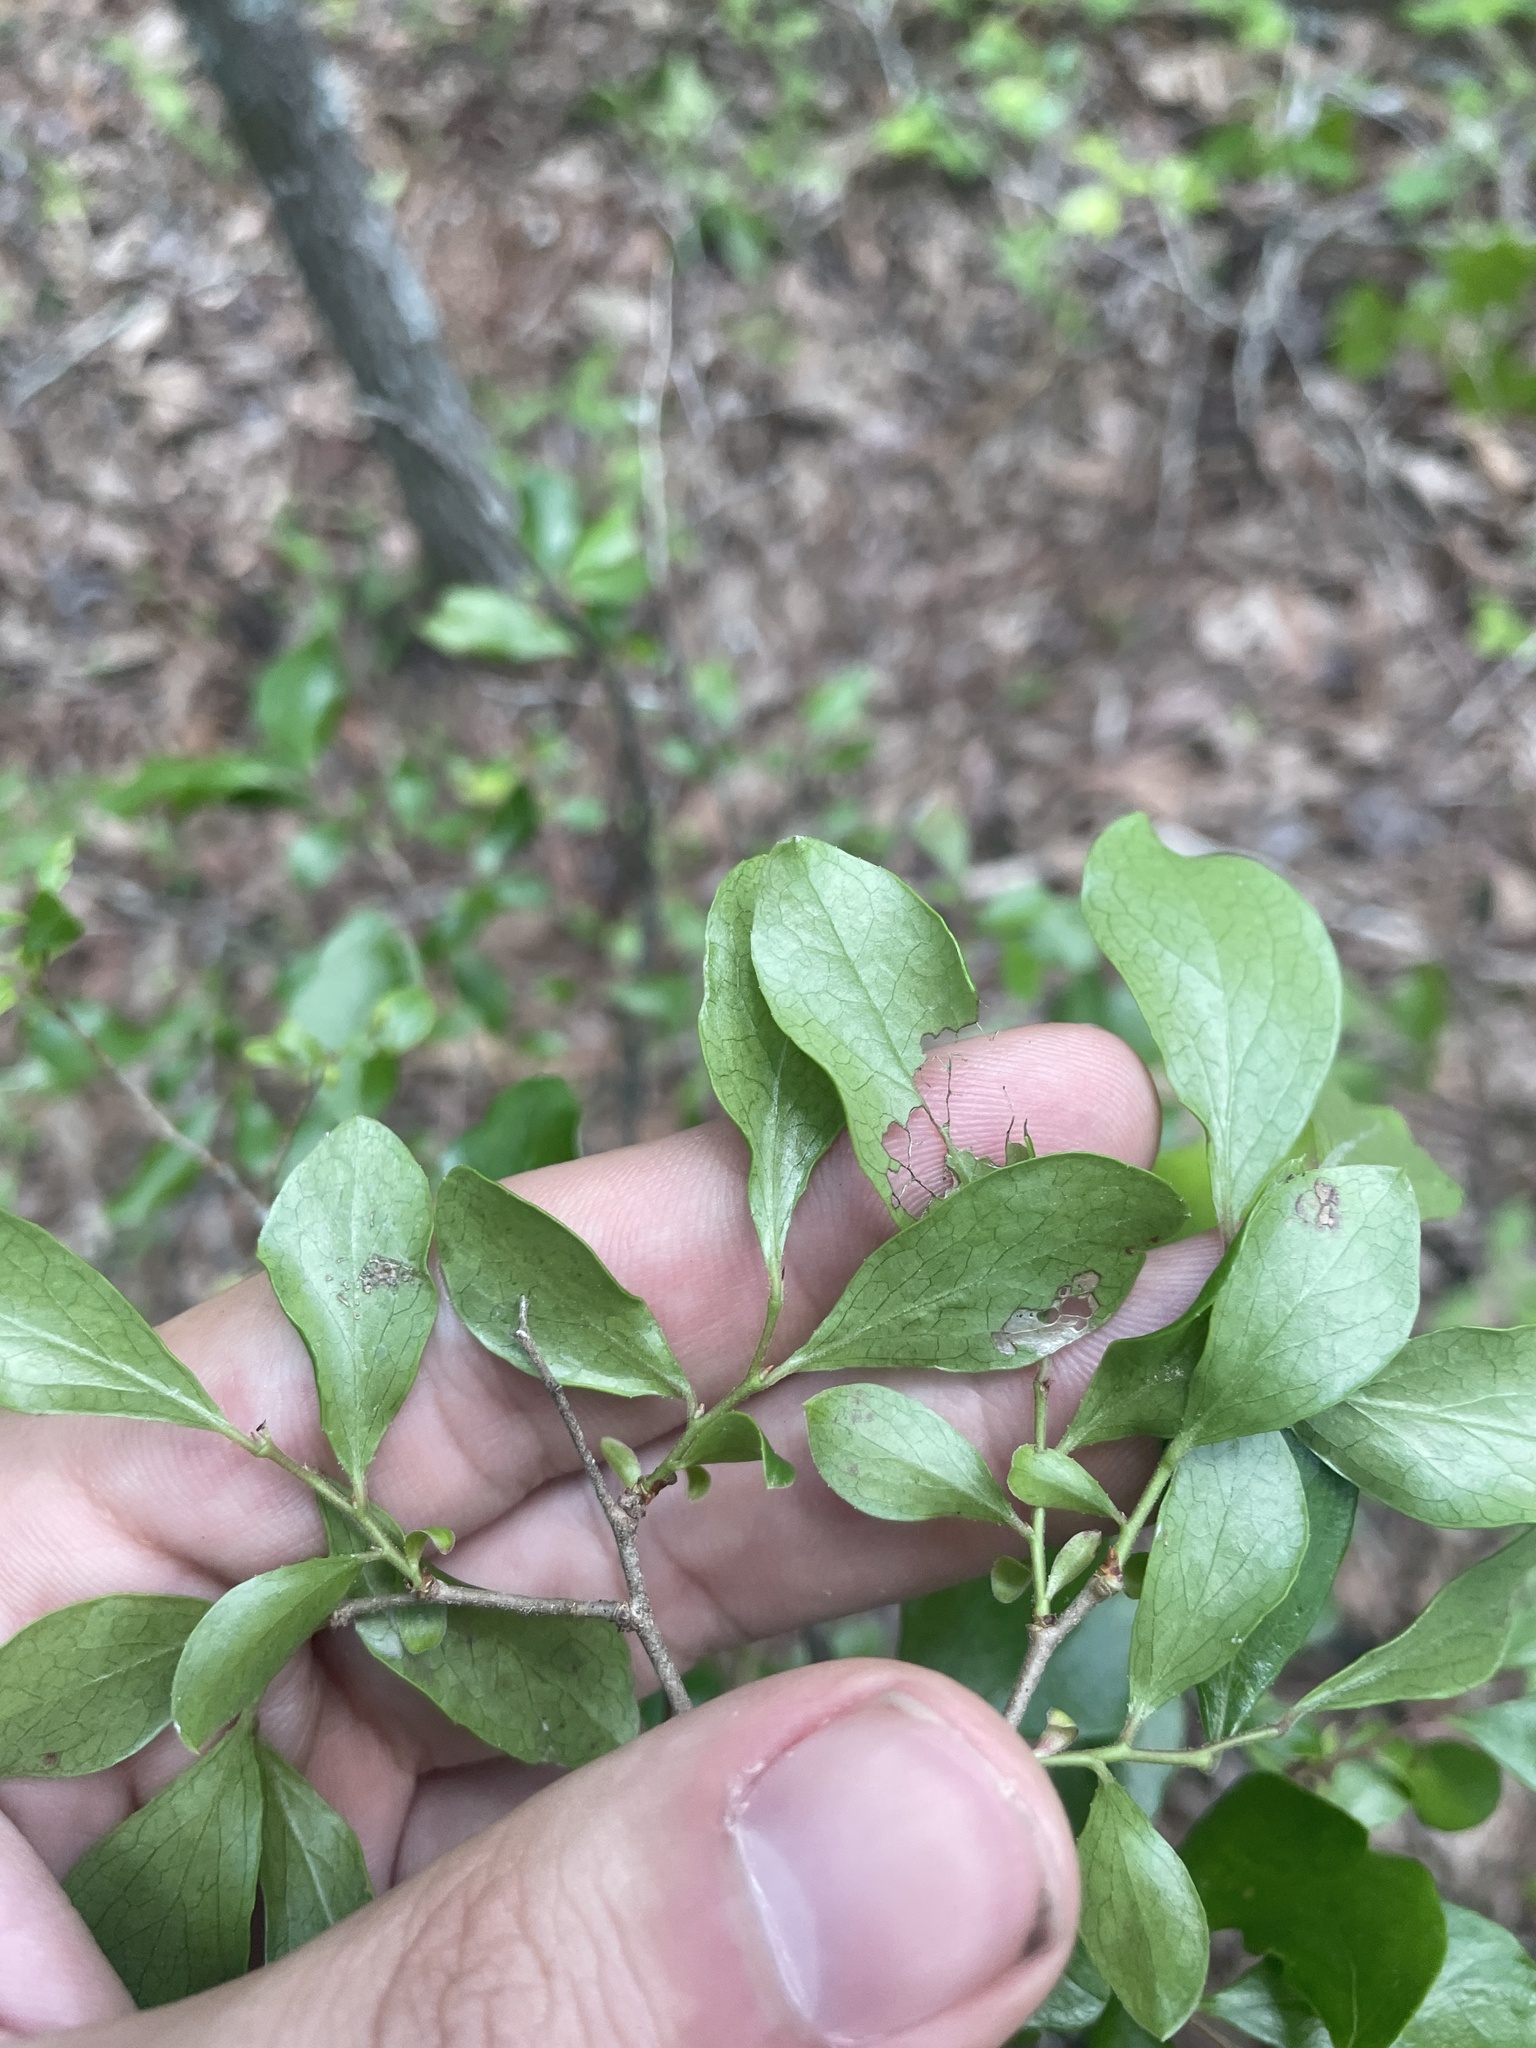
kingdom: Plantae
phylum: Tracheophyta
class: Magnoliopsida
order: Ericales
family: Ericaceae
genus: Vaccinium
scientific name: Vaccinium arboreum
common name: Farkleberry
